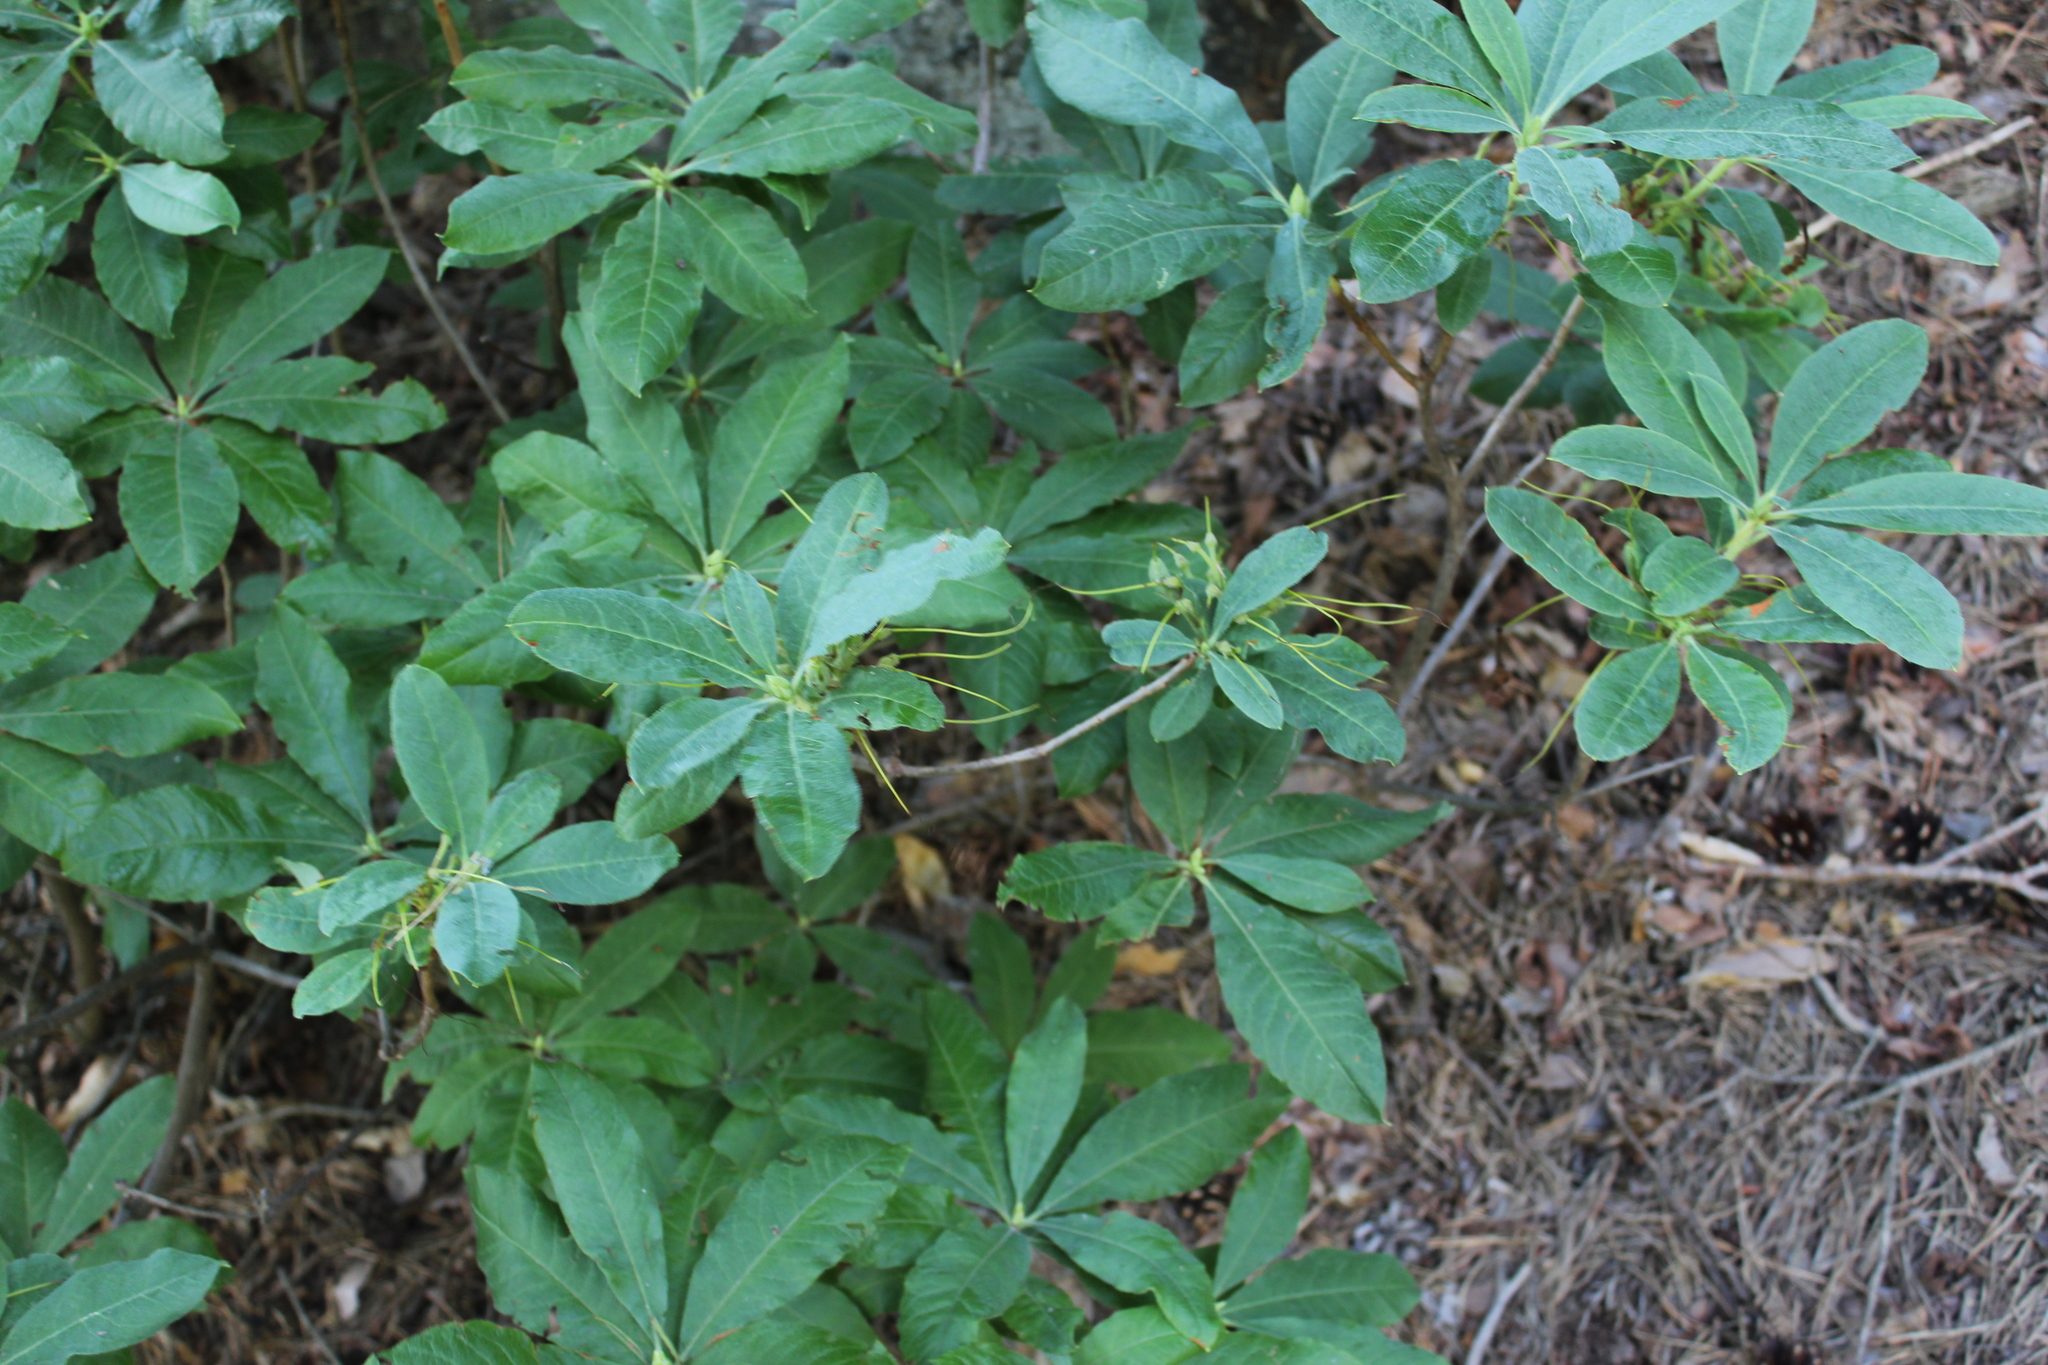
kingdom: Plantae
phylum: Tracheophyta
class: Magnoliopsida
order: Ericales
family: Ericaceae
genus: Rhododendron
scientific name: Rhododendron luteum
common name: Yellow azalea
